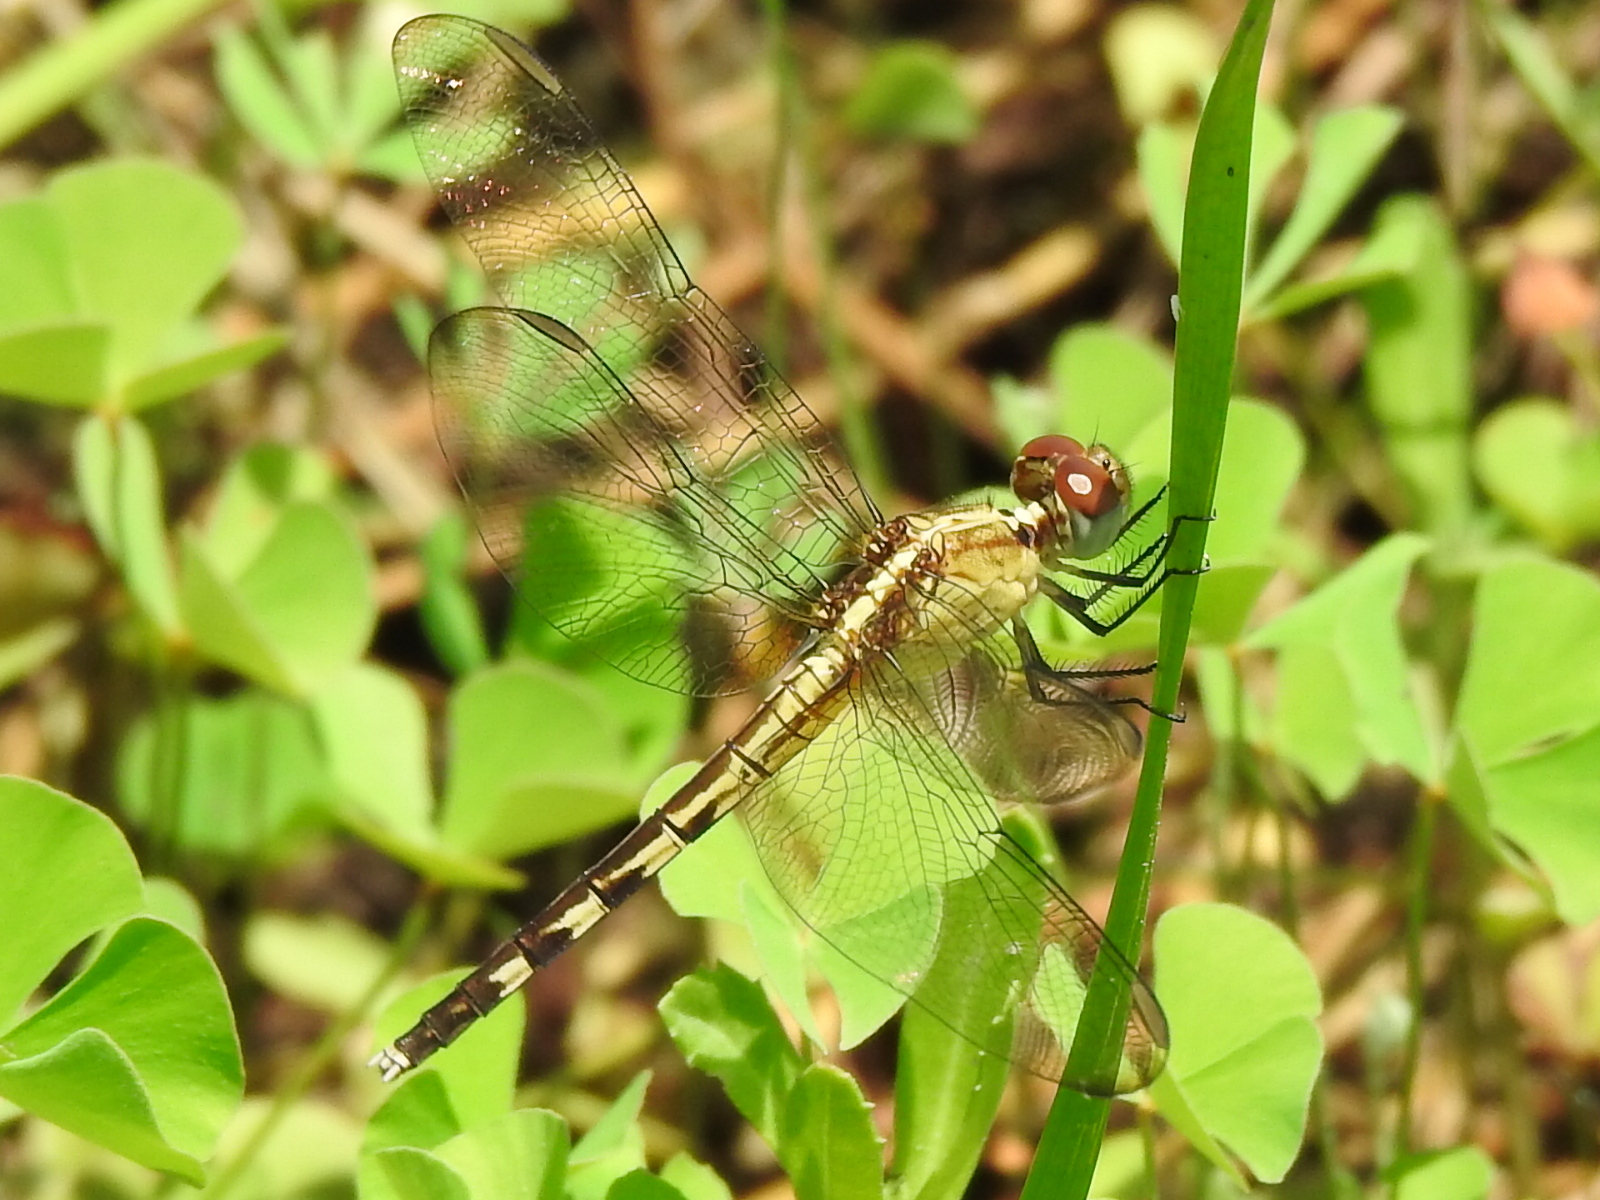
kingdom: Animalia
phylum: Arthropoda
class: Insecta
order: Odonata
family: Libellulidae
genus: Erythrodiplax
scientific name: Erythrodiplax umbrata
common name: Band-winged dragonlet
